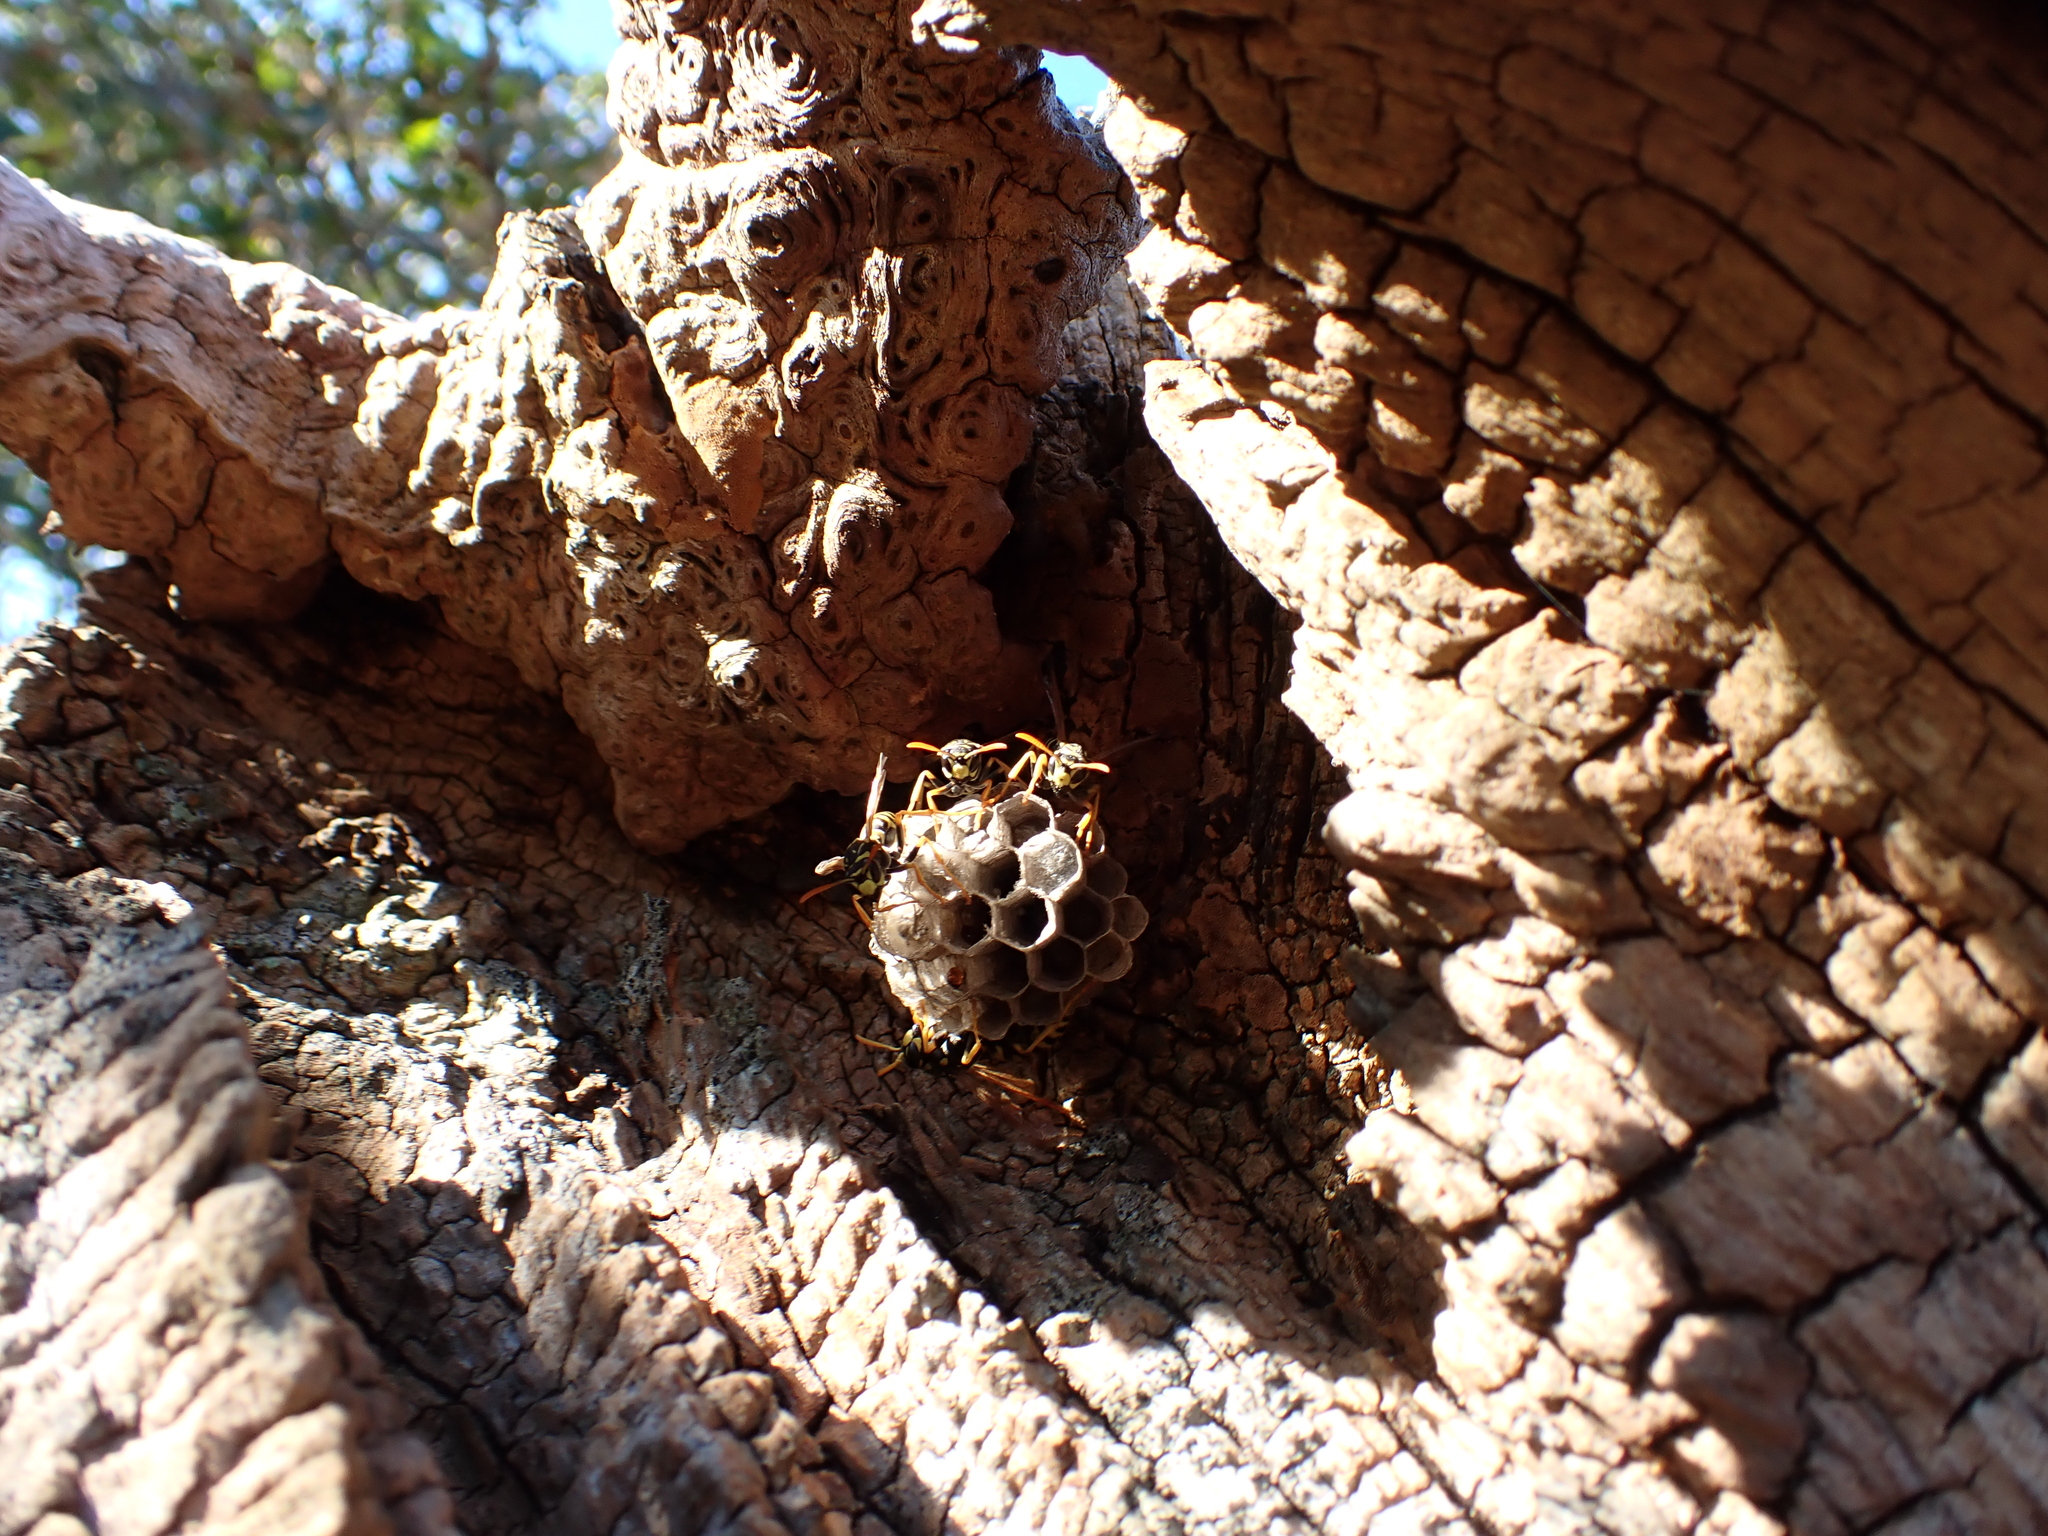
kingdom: Animalia
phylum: Arthropoda
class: Insecta
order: Hymenoptera
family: Eumenidae
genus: Polistes
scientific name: Polistes dominula
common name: Paper wasp
